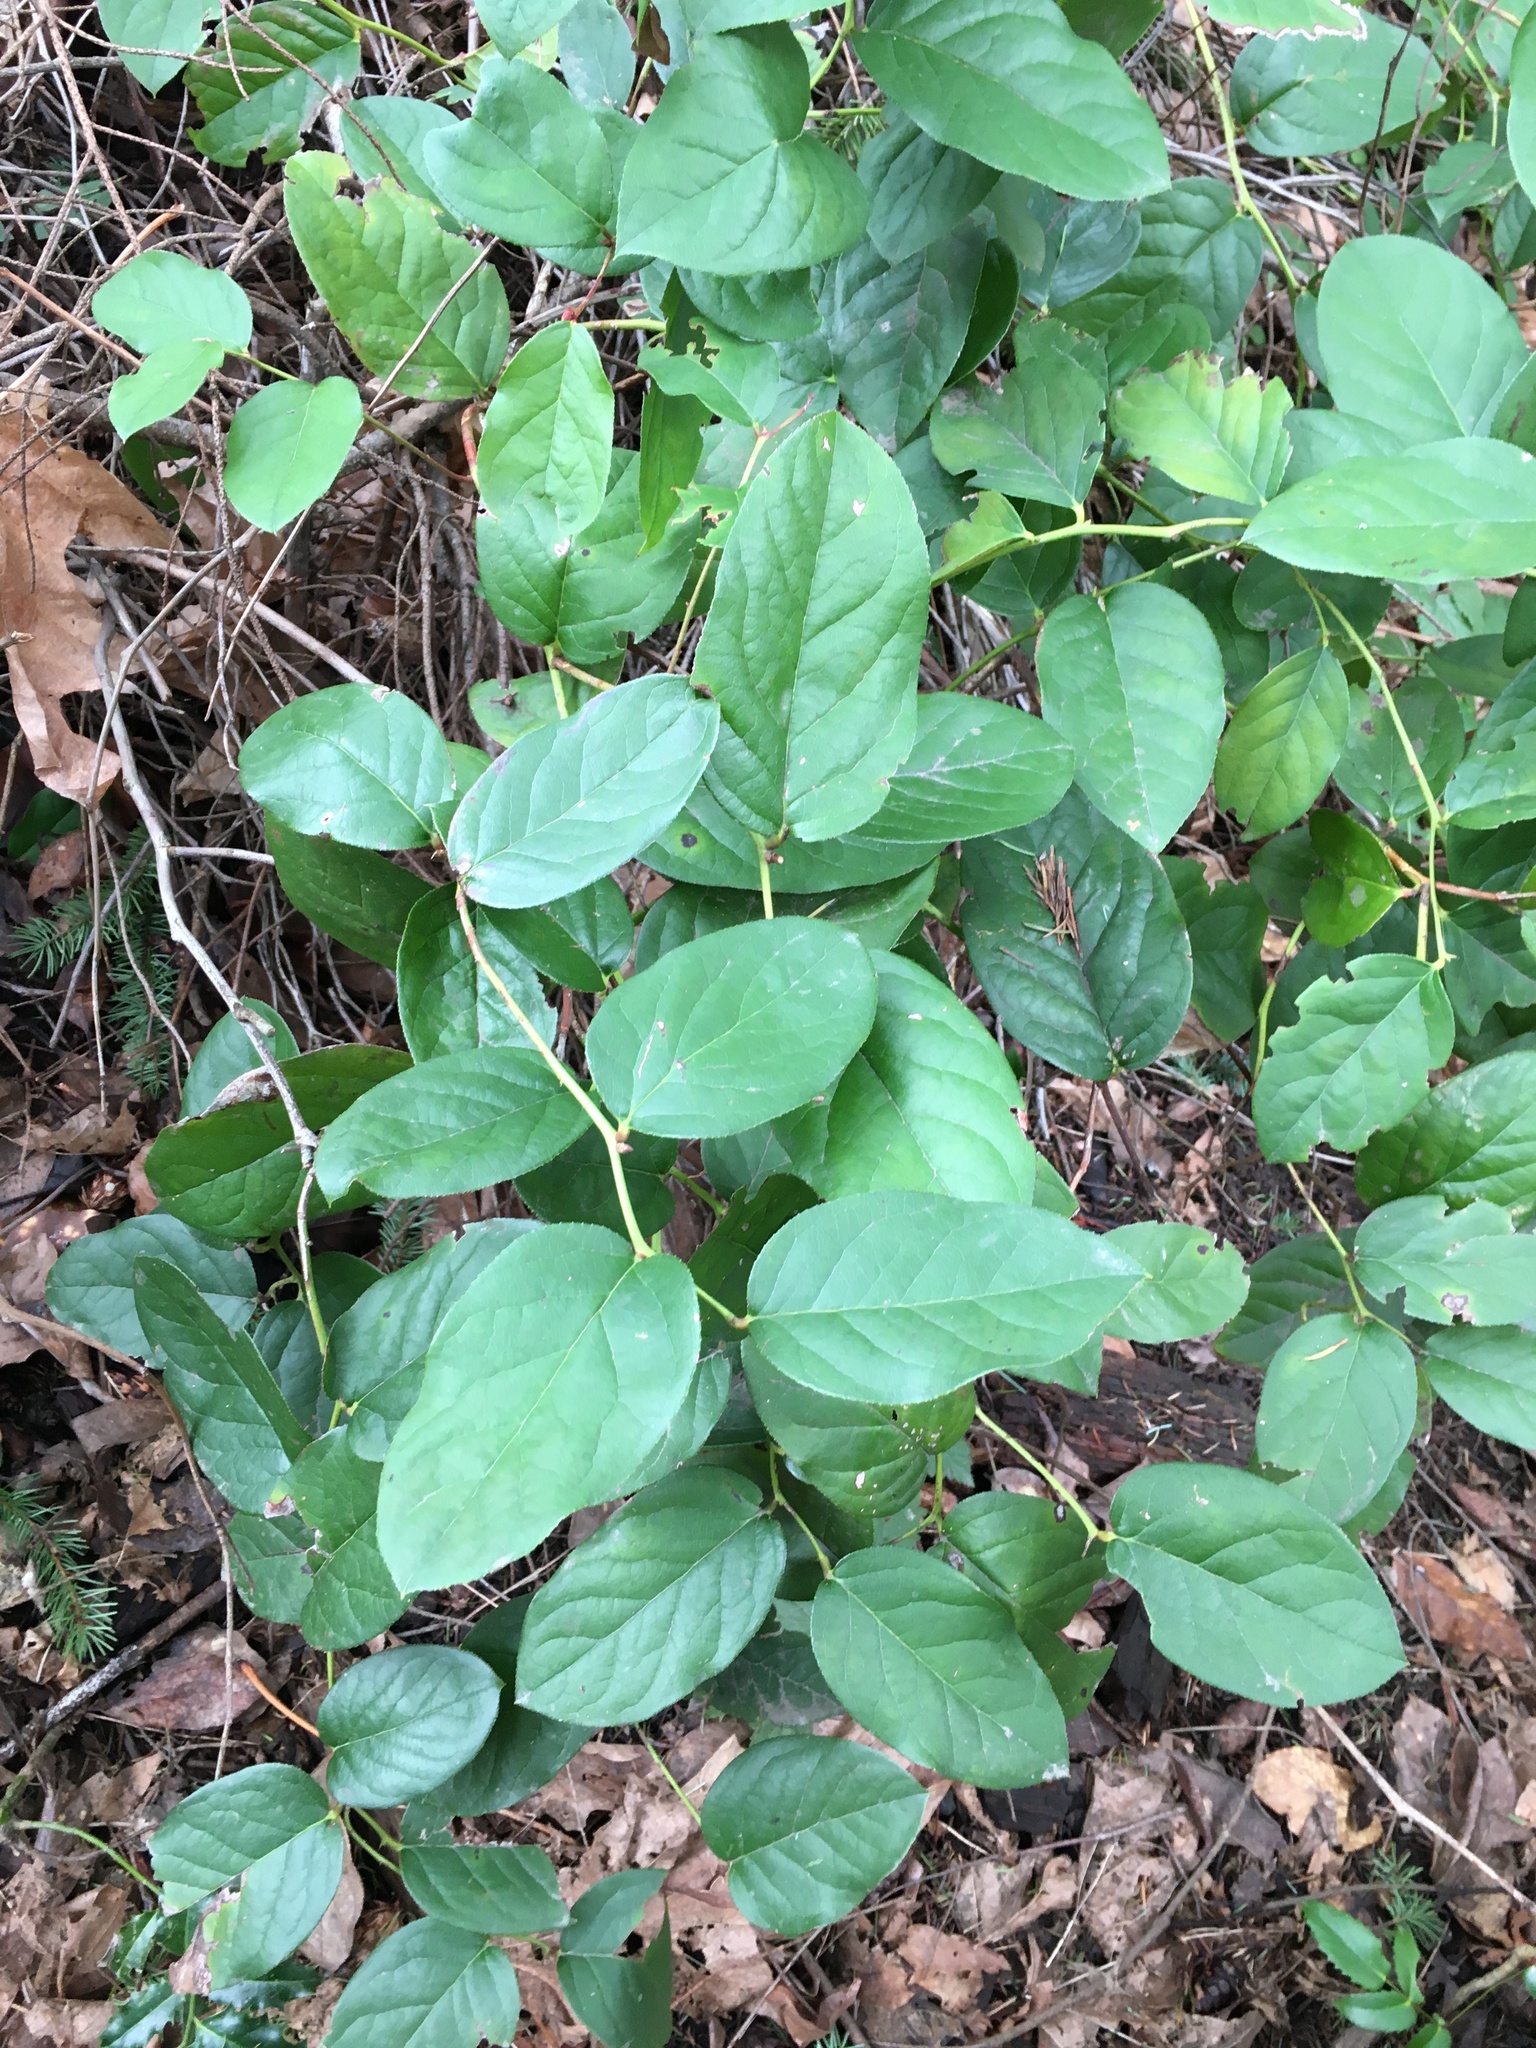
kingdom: Plantae
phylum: Tracheophyta
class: Magnoliopsida
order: Ericales
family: Ericaceae
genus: Gaultheria
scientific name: Gaultheria shallon
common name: Shallon
